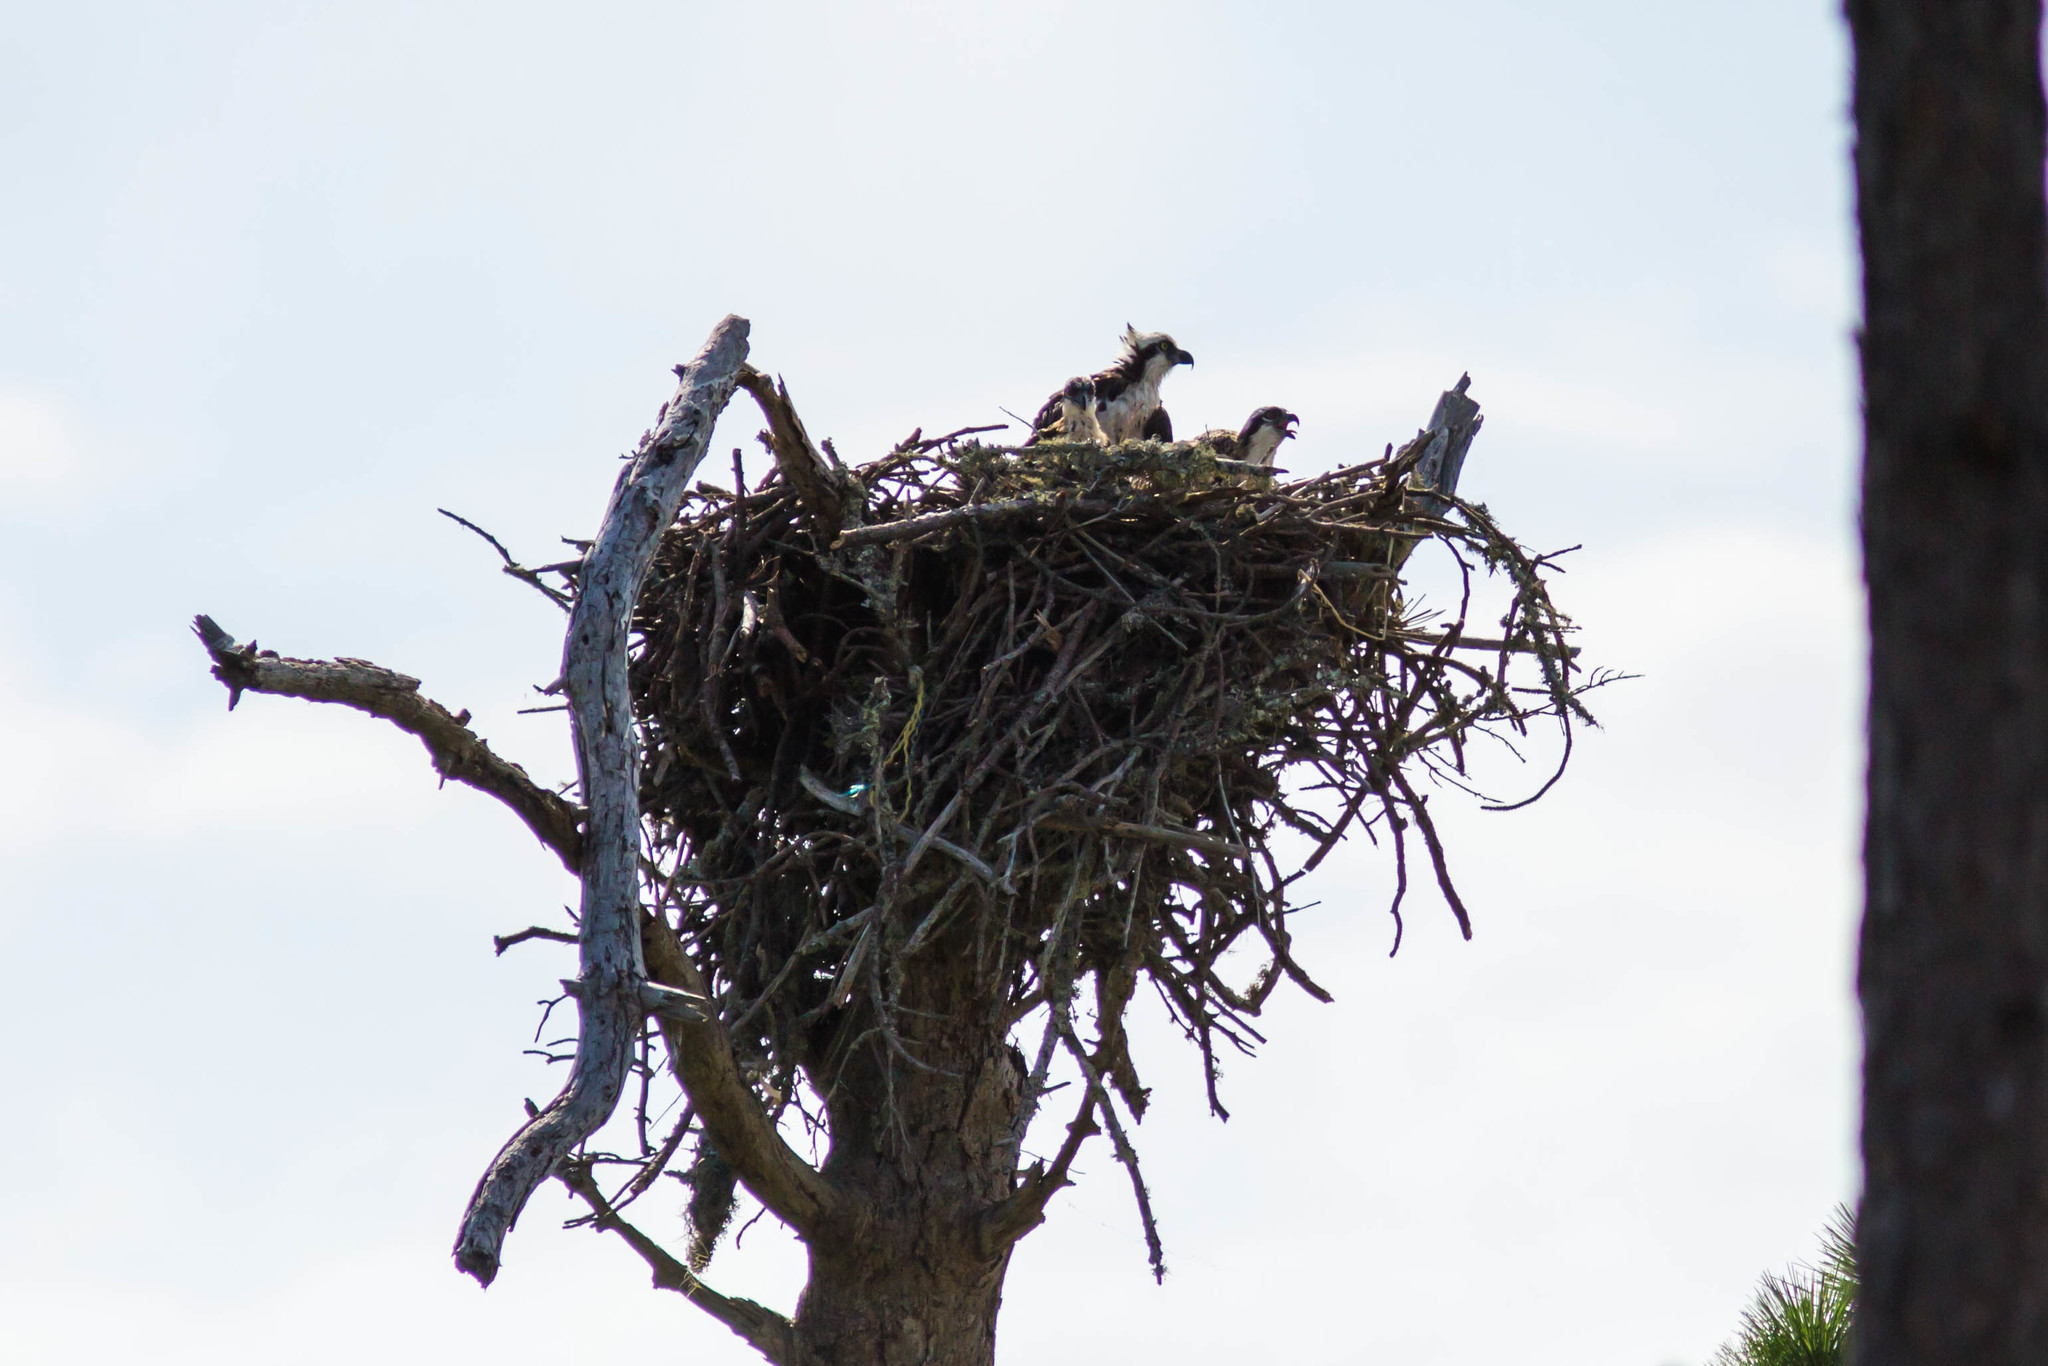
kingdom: Animalia
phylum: Chordata
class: Aves
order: Accipitriformes
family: Pandionidae
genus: Pandion
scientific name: Pandion haliaetus
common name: Osprey
